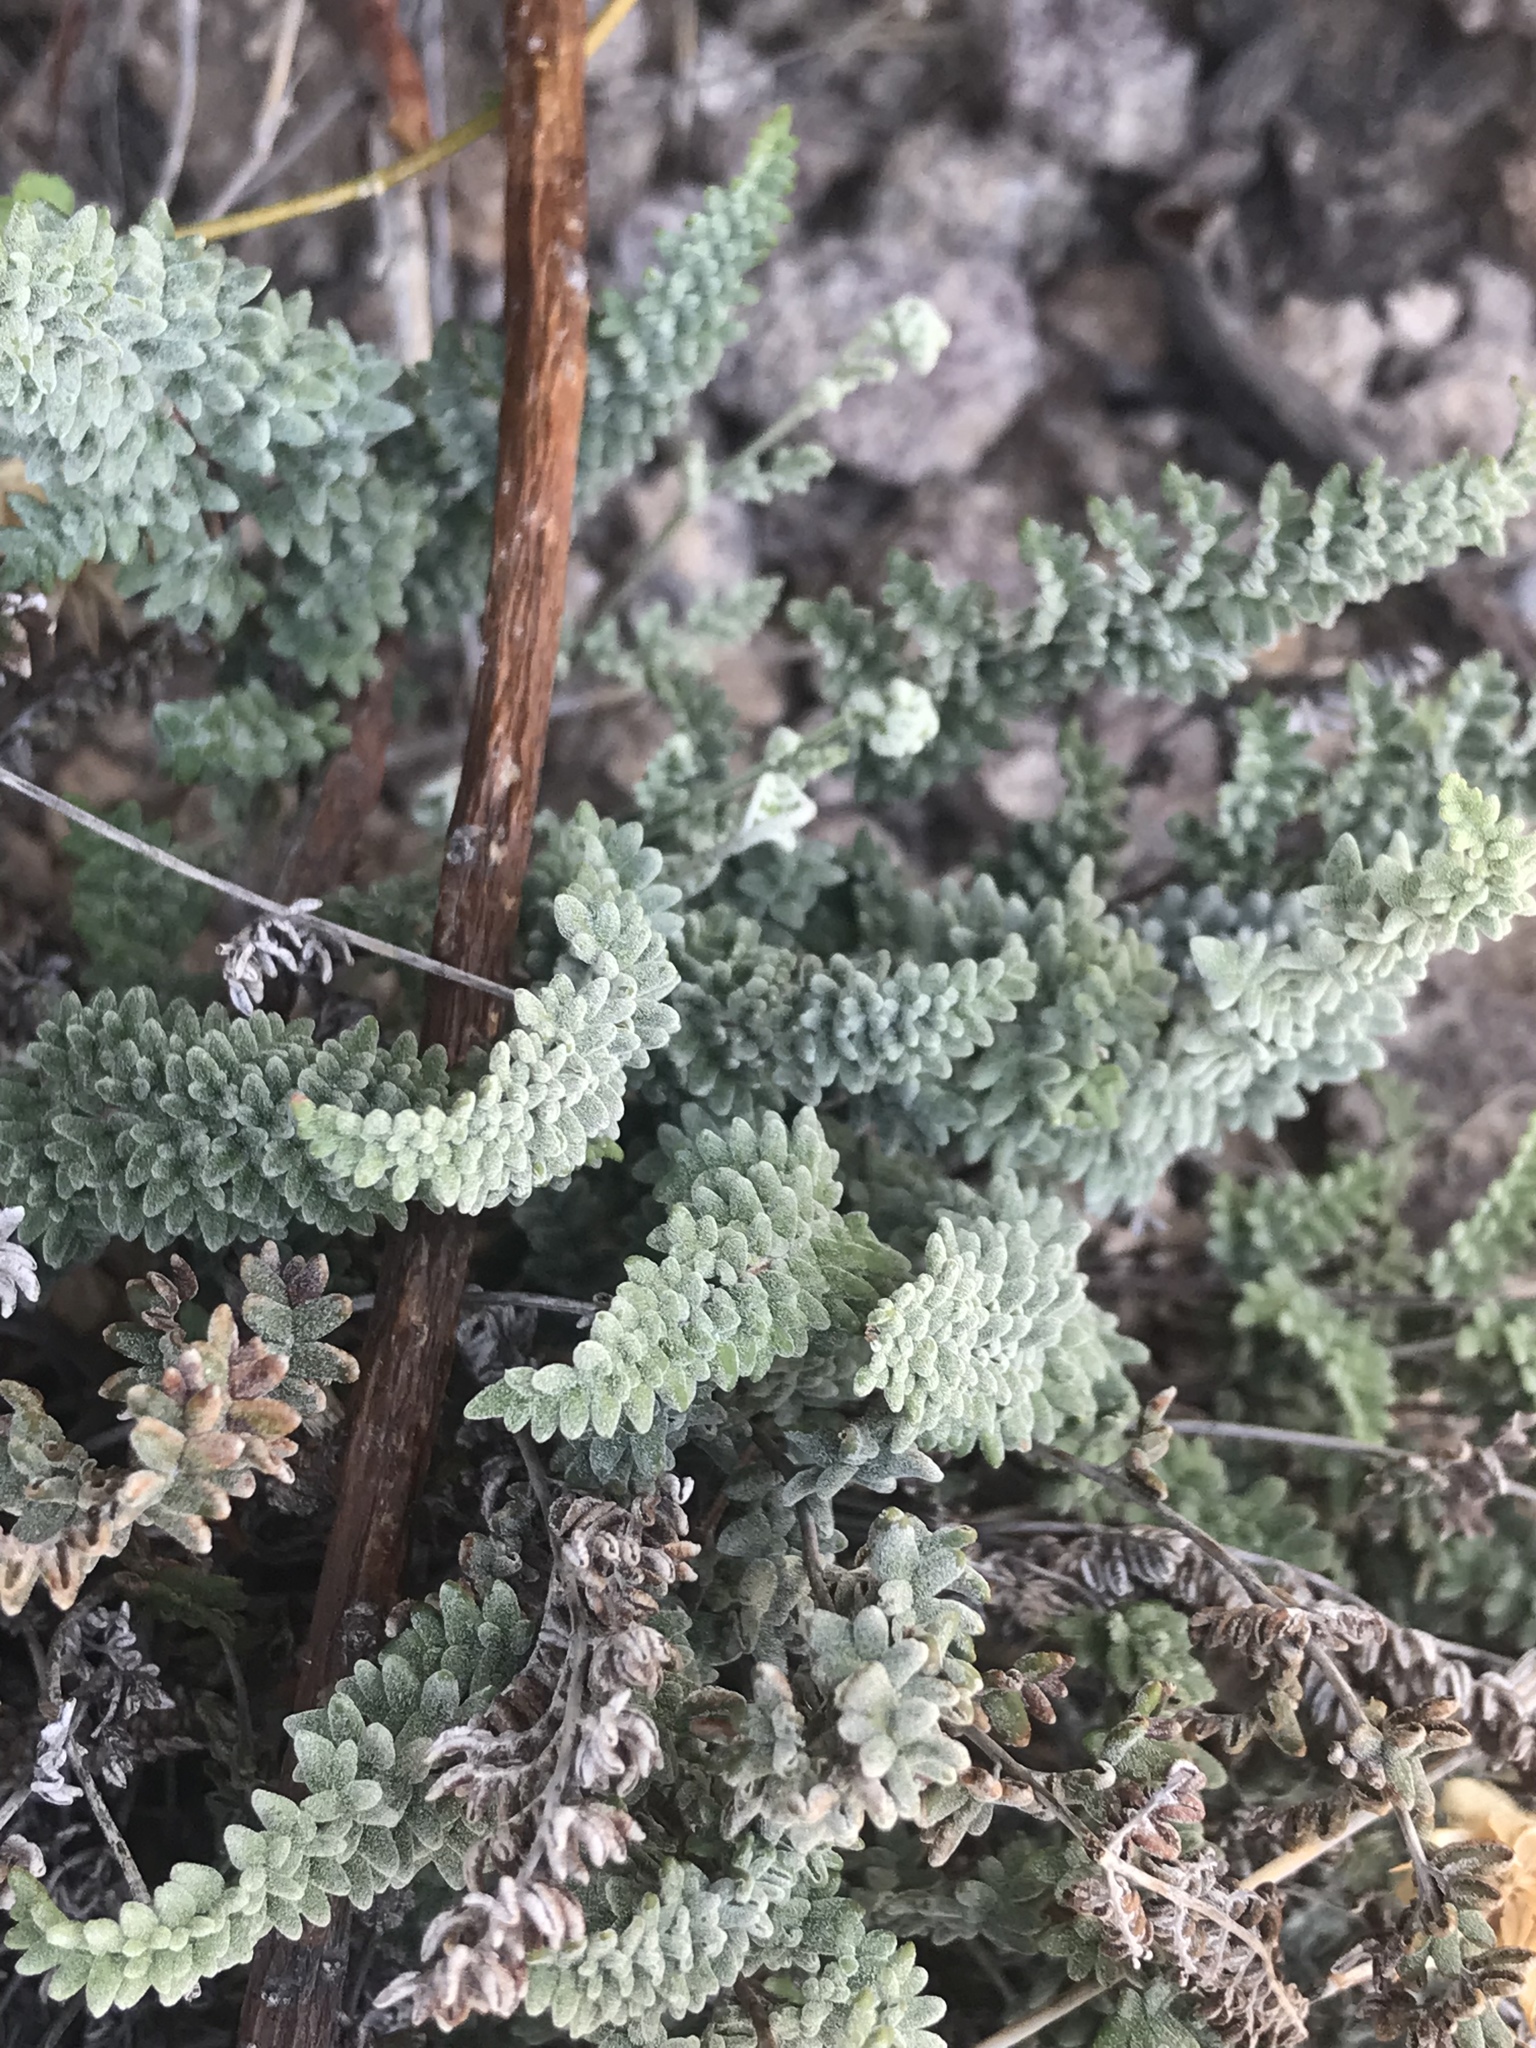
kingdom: Plantae
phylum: Tracheophyta
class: Polypodiopsida
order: Polypodiales
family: Pteridaceae
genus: Notholaena
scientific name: Notholaena greggii
